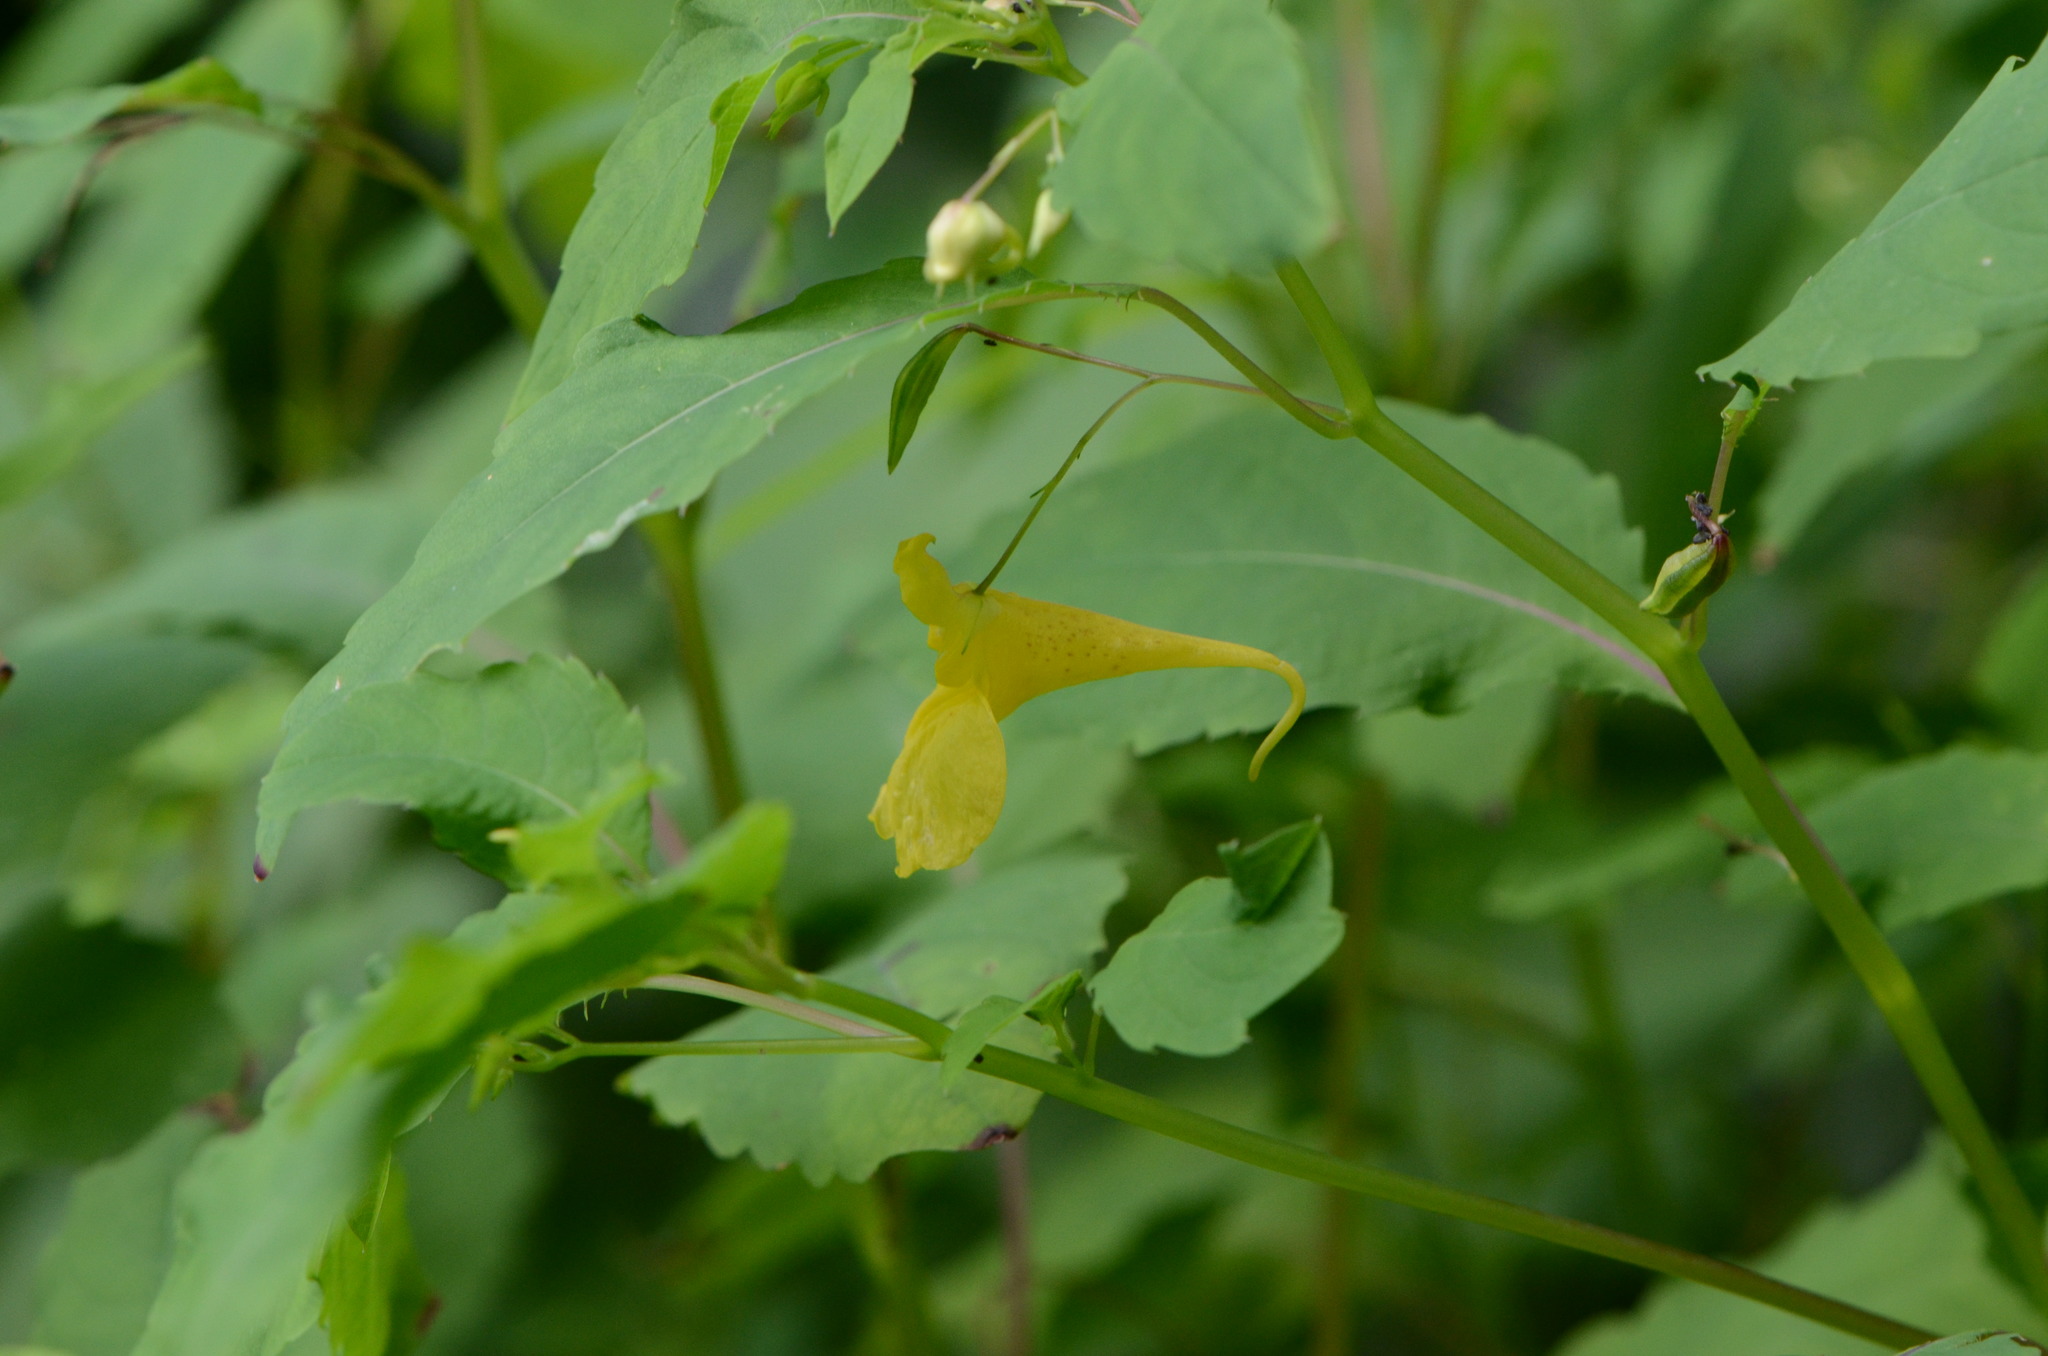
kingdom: Plantae
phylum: Tracheophyta
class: Magnoliopsida
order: Ericales
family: Balsaminaceae
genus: Impatiens
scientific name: Impatiens noli-tangere
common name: Touch-me-not balsam
